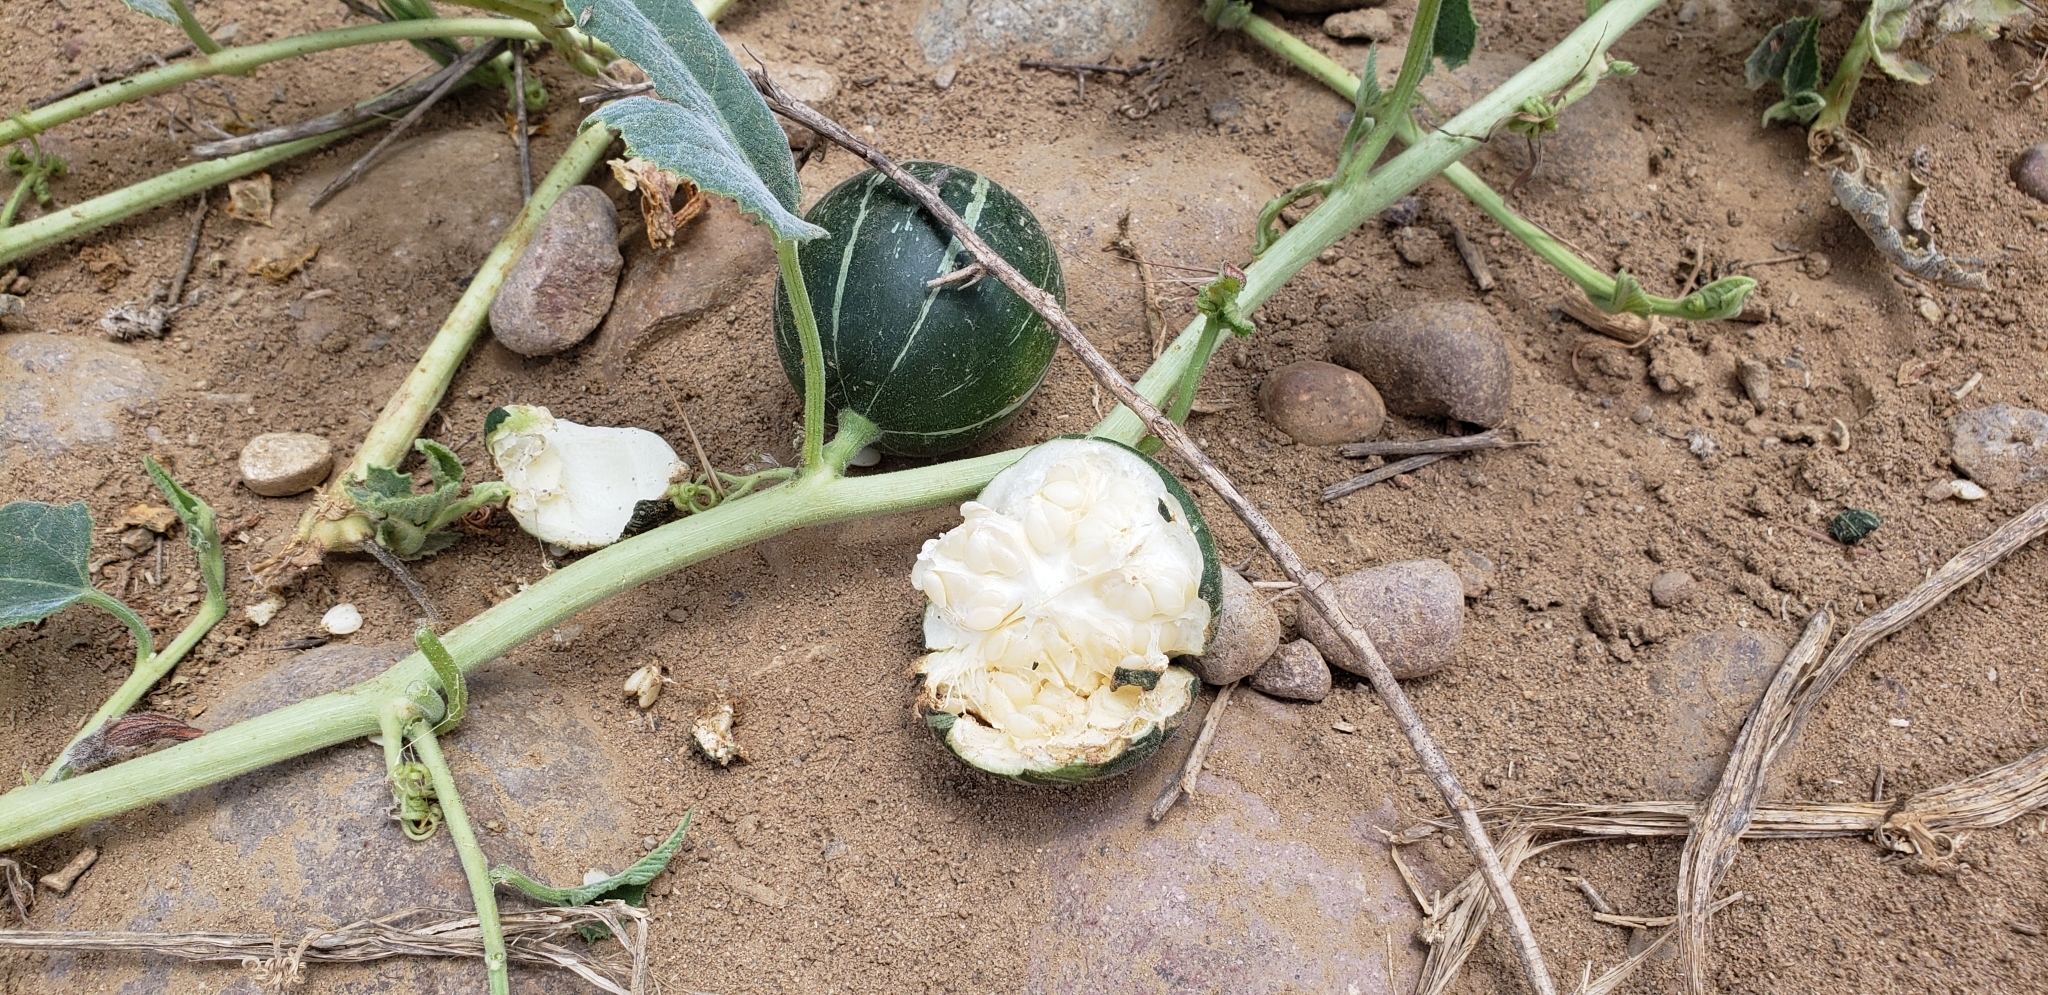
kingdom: Plantae
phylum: Tracheophyta
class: Magnoliopsida
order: Cucurbitales
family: Cucurbitaceae
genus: Cucurbita
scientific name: Cucurbita foetidissima
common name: Buffalo gourd
